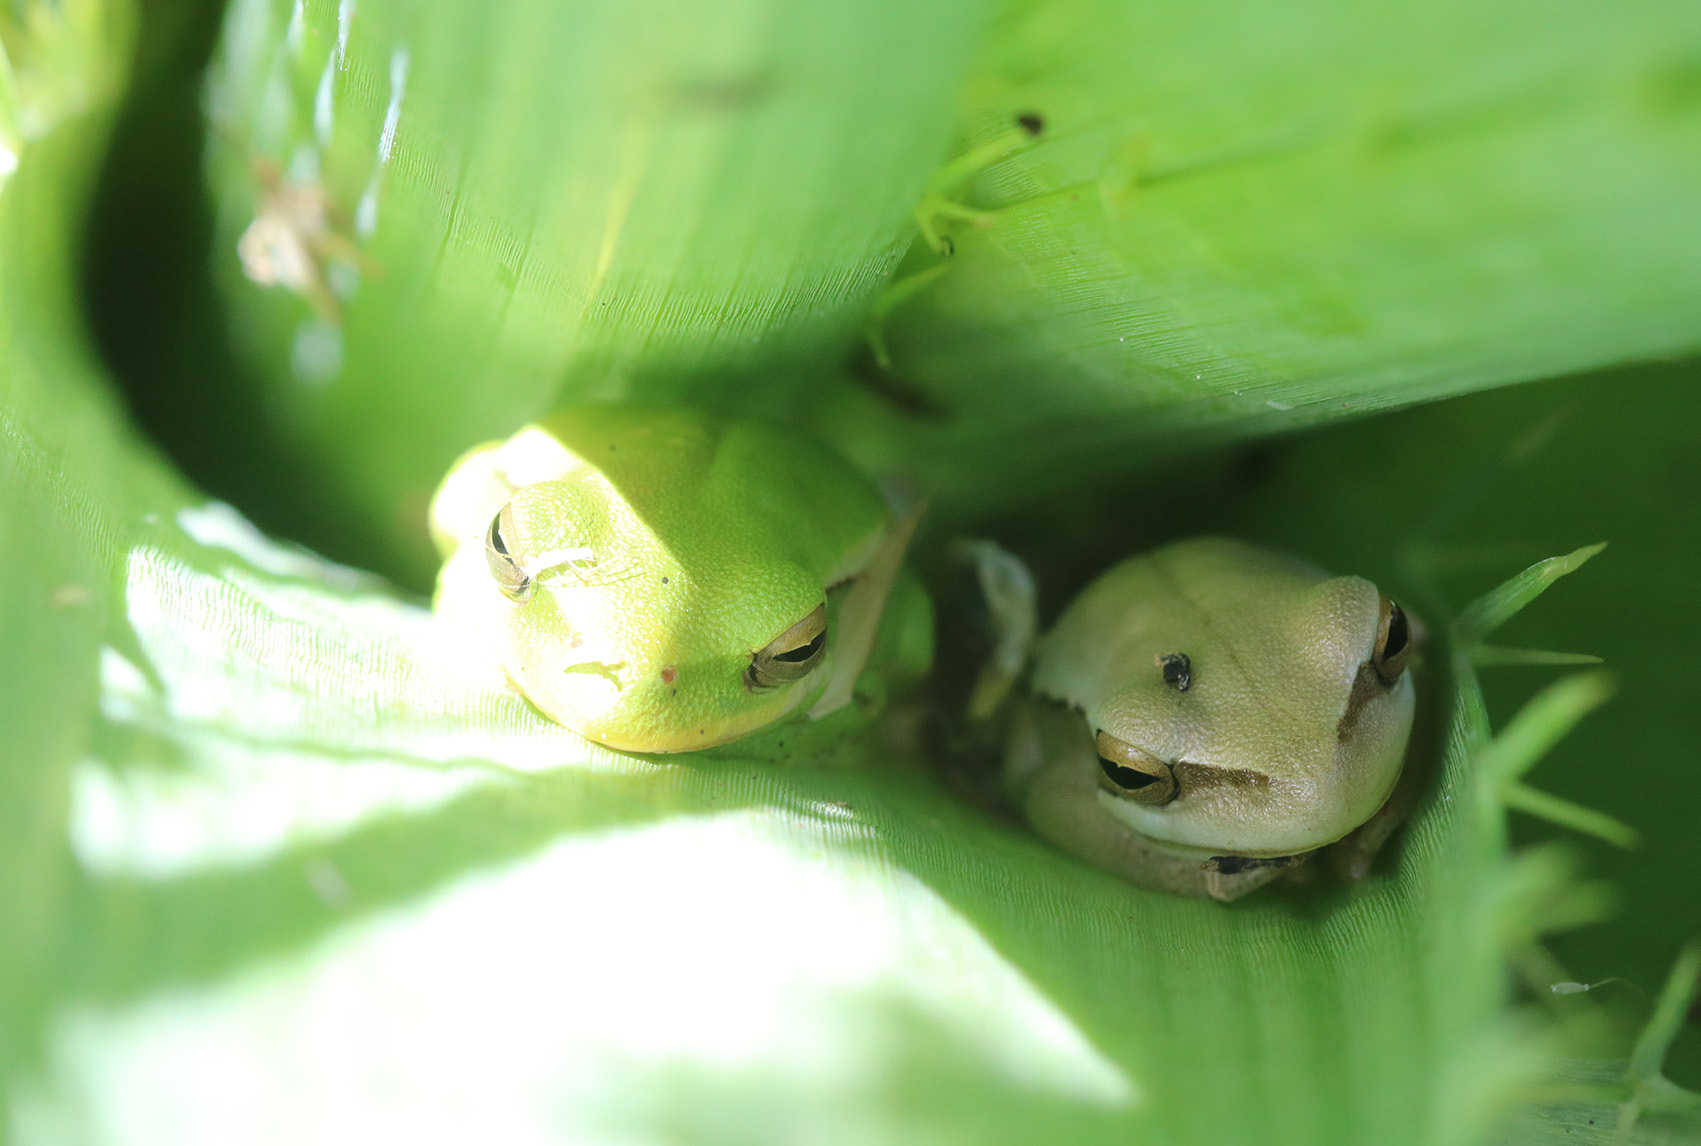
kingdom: Animalia
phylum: Chordata
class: Amphibia
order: Anura
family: Hylidae
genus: Boana
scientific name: Boana pulchella
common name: Montevideo treefrog
